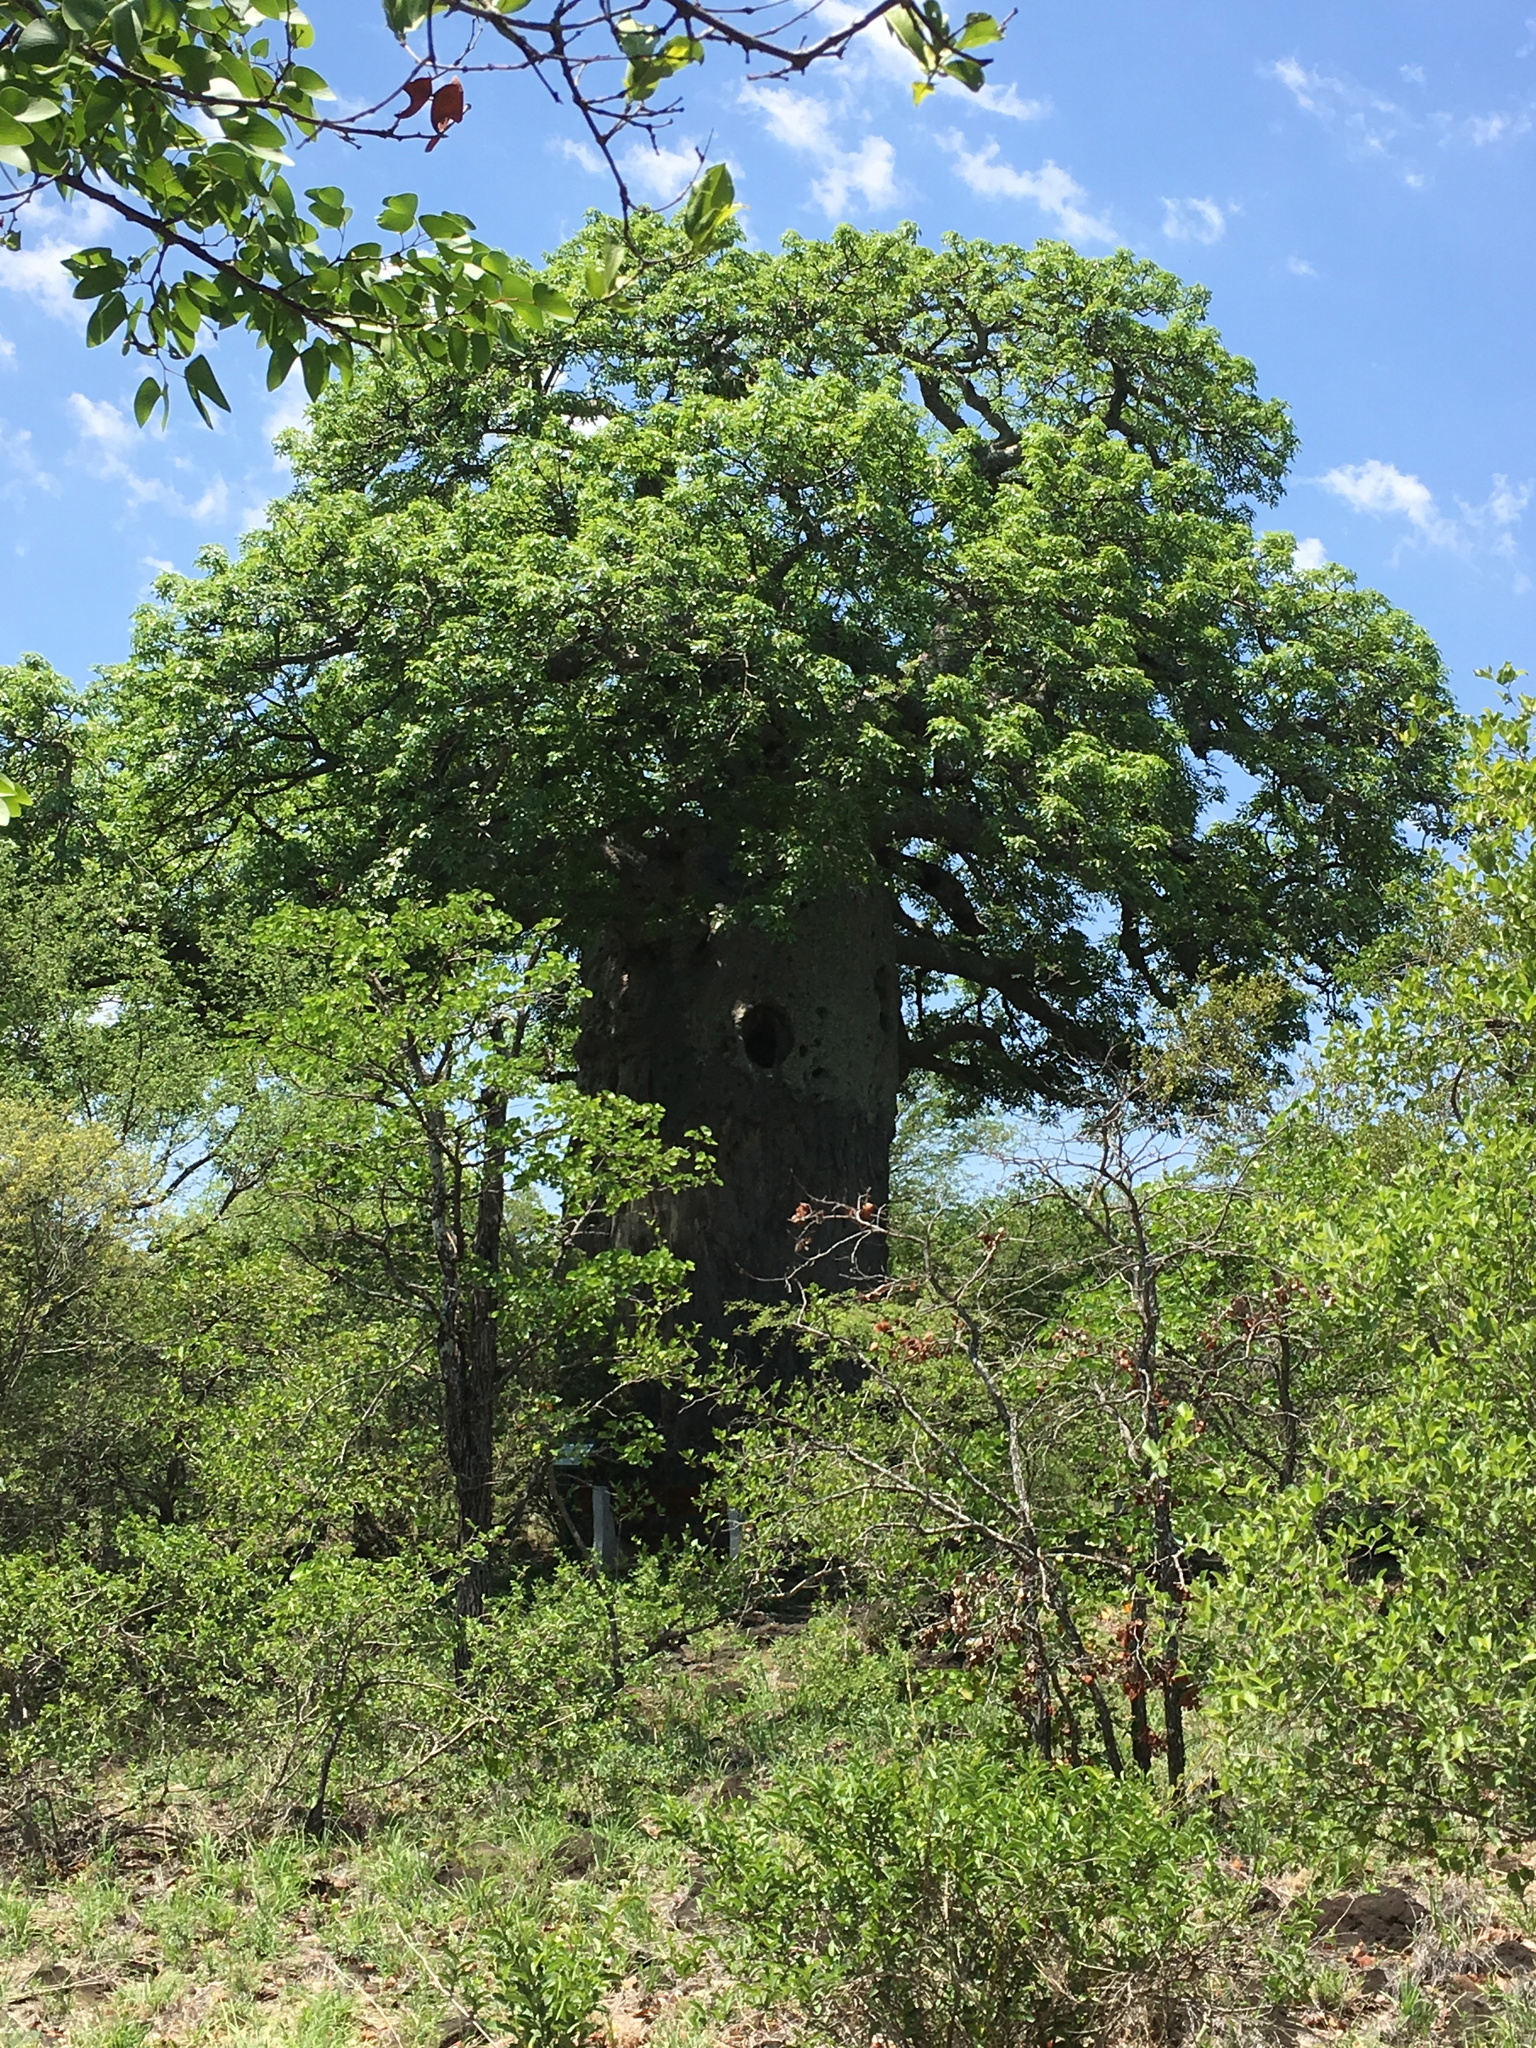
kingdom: Plantae
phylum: Tracheophyta
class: Magnoliopsida
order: Malvales
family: Malvaceae
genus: Adansonia
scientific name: Adansonia digitata
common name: Dead-rat-tree
